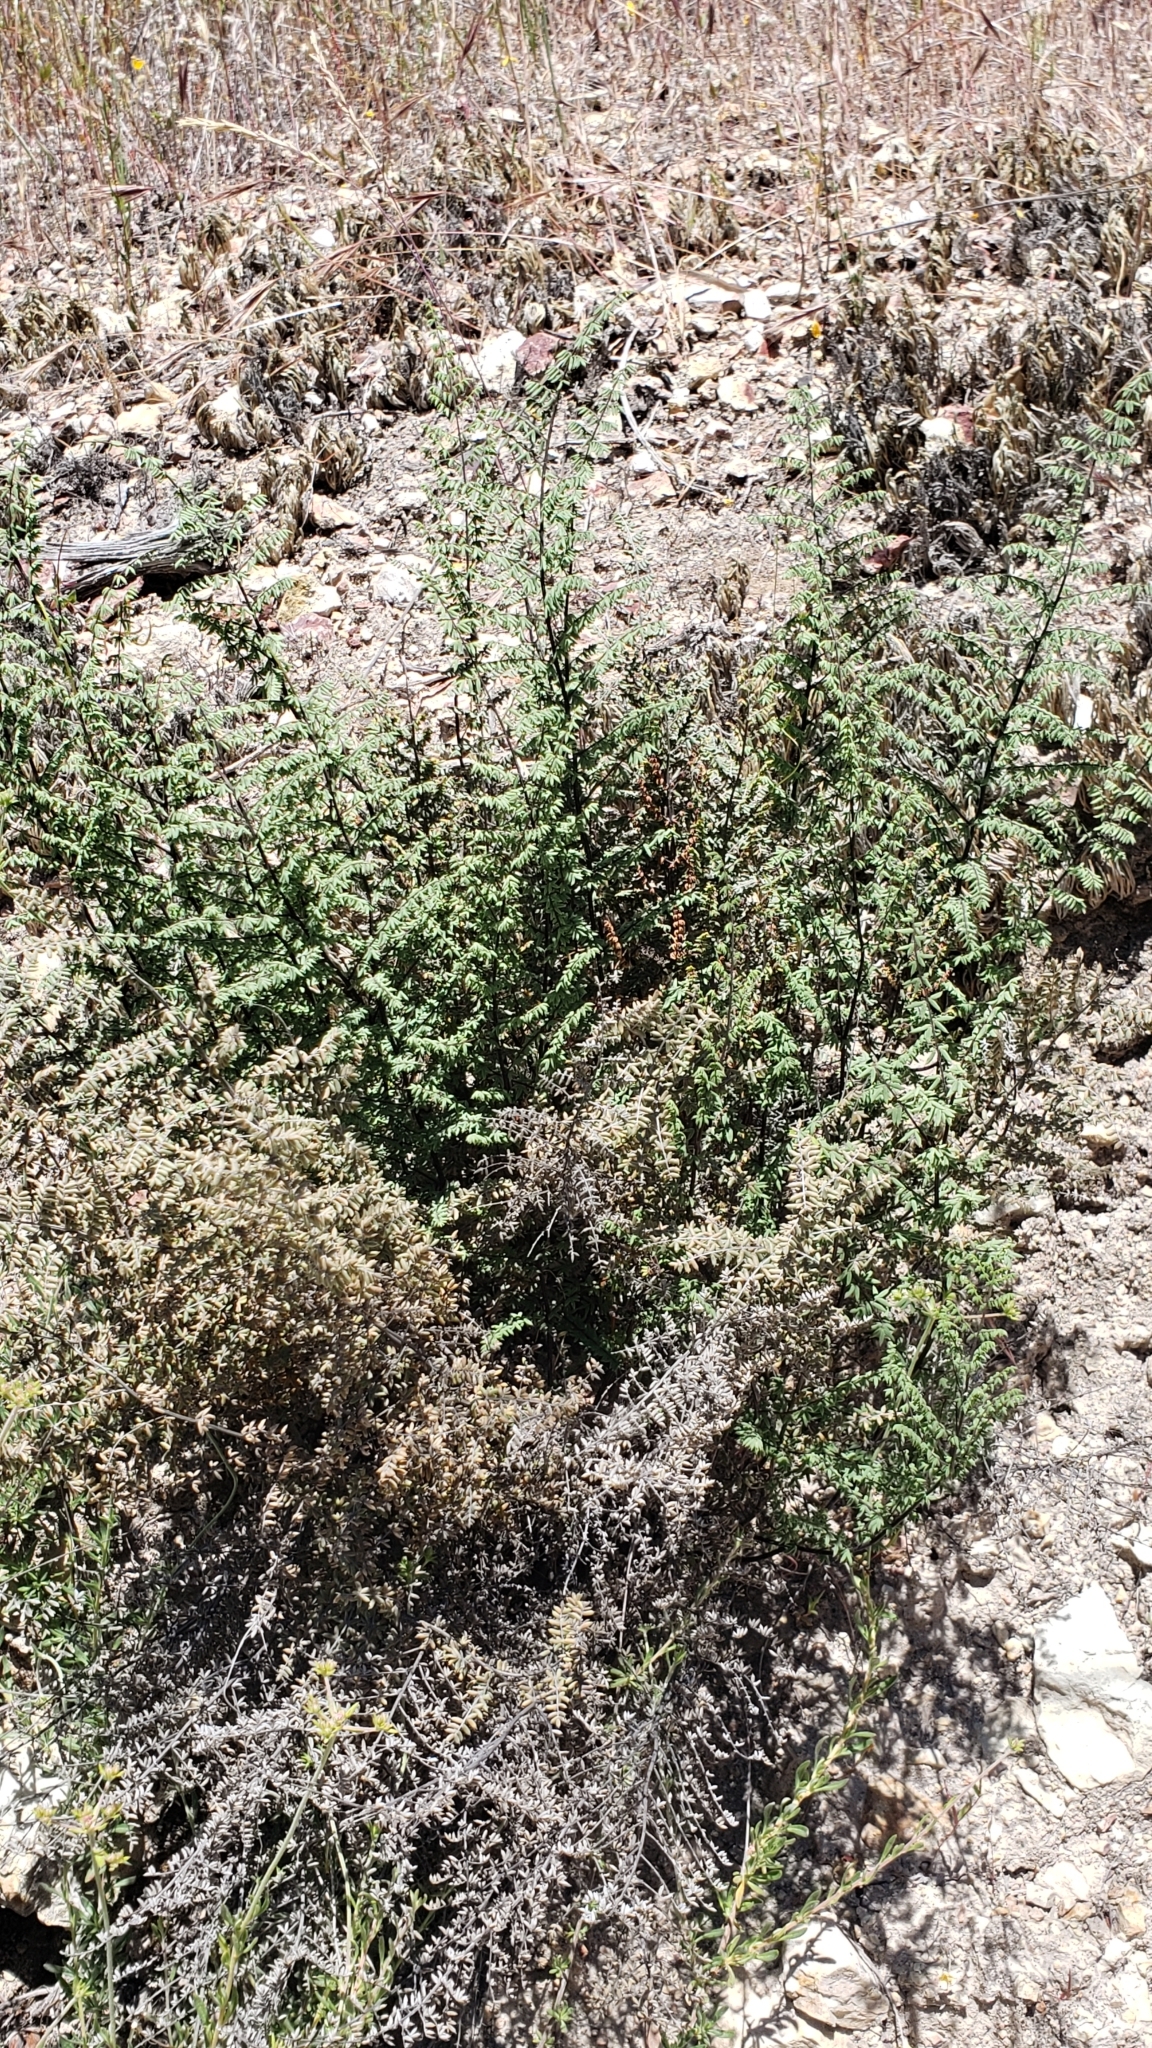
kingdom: Plantae
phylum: Tracheophyta
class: Polypodiopsida
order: Polypodiales
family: Pteridaceae
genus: Pellaea
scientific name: Pellaea mucronata
